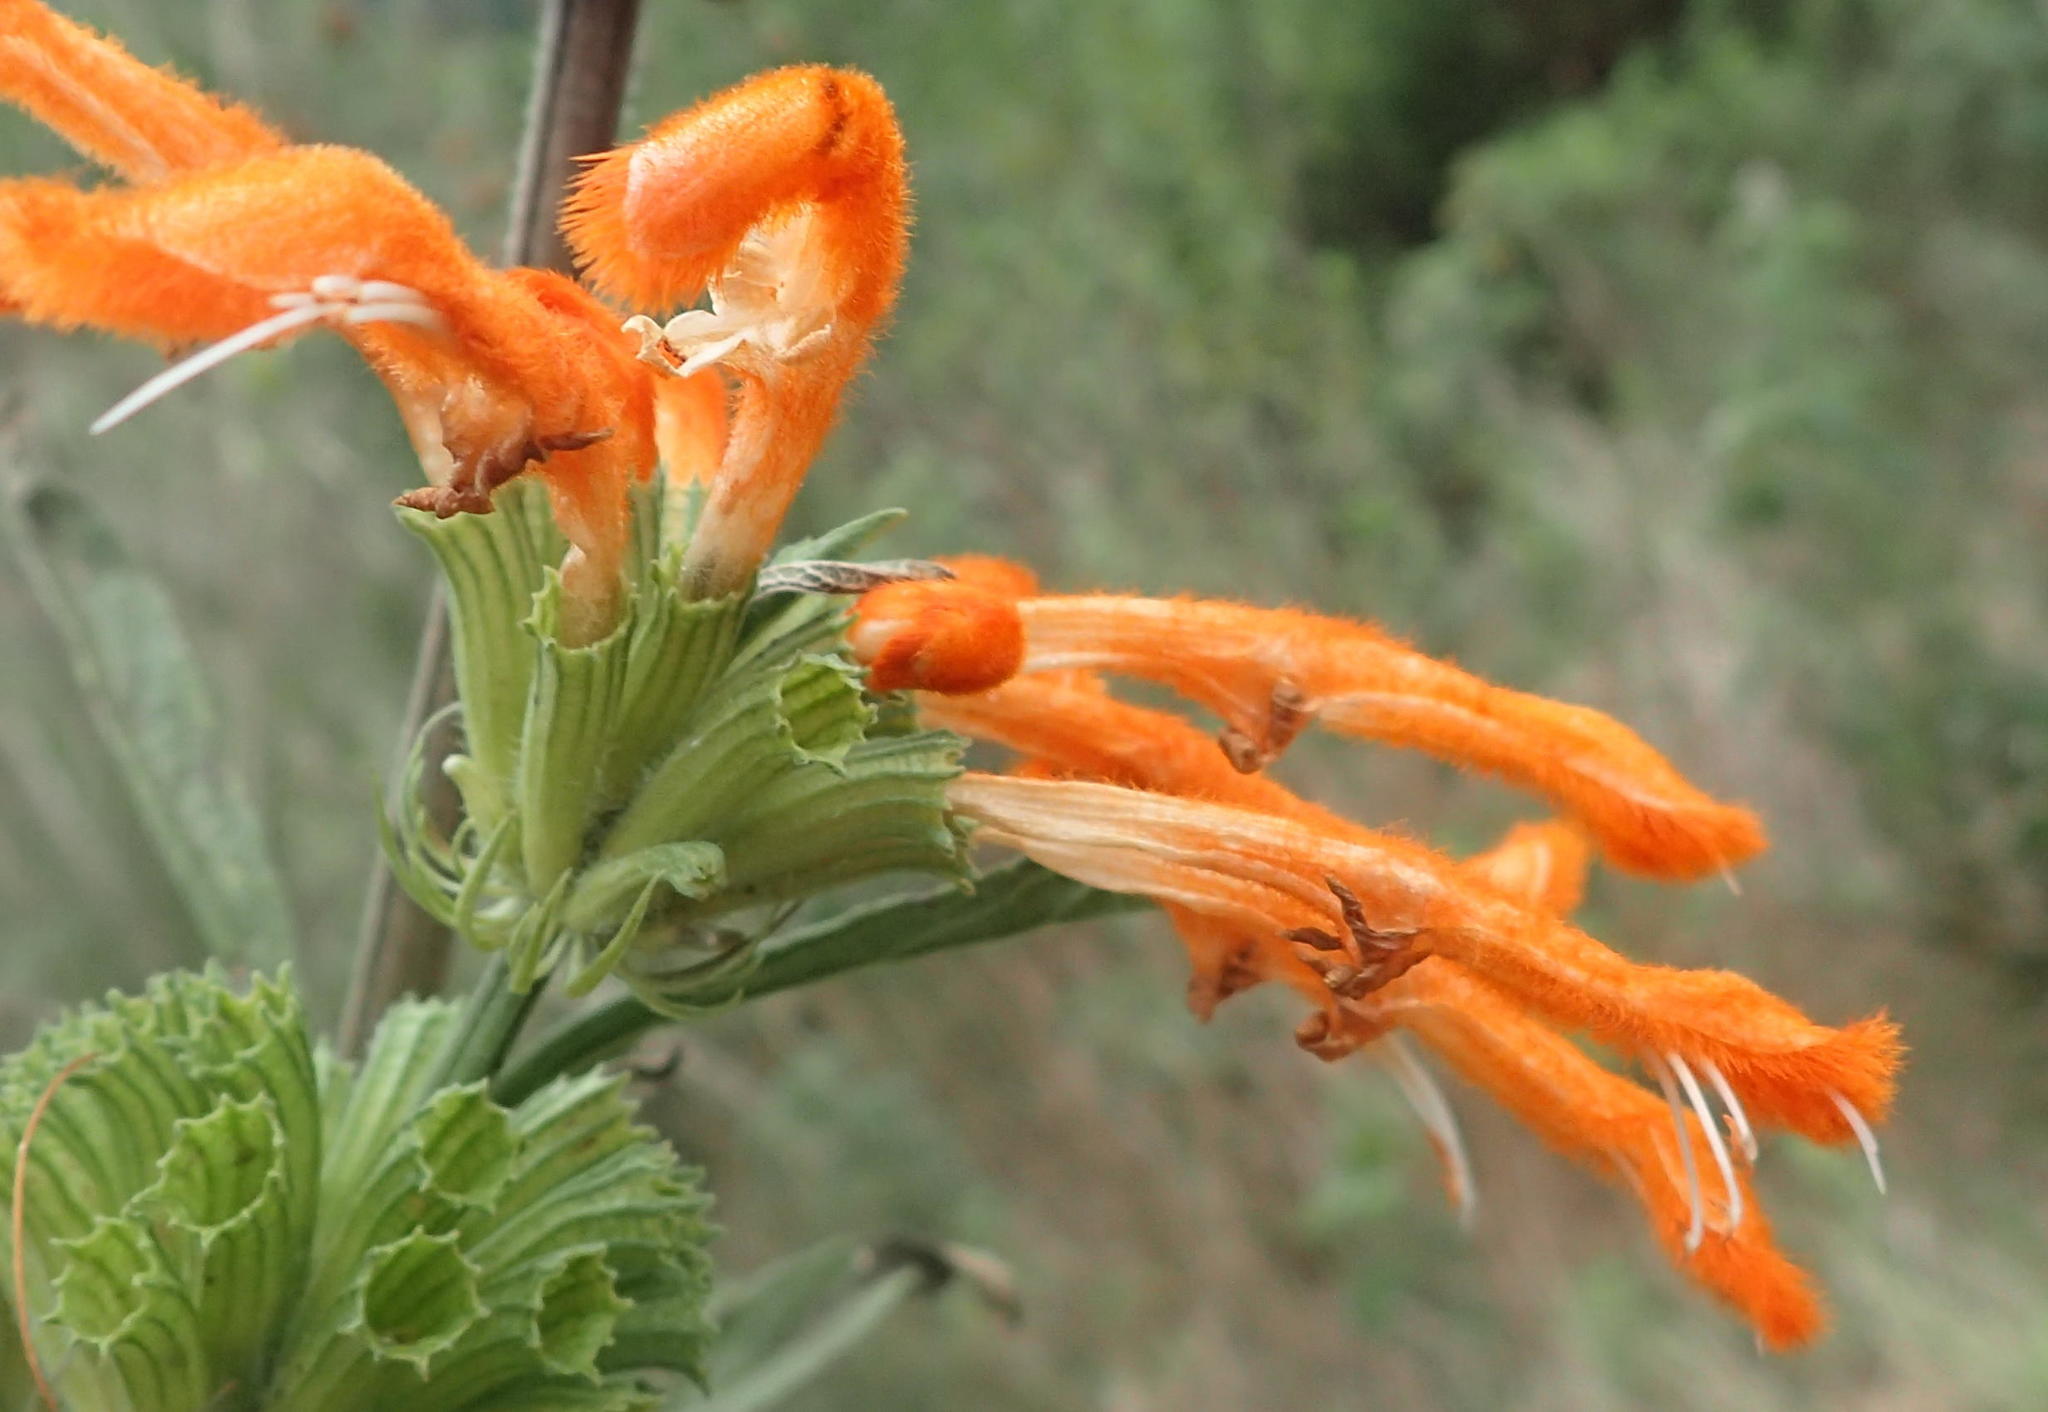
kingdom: Plantae
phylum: Tracheophyta
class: Magnoliopsida
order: Lamiales
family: Lamiaceae
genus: Leonotis
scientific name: Leonotis leonurus
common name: Lion's ear
